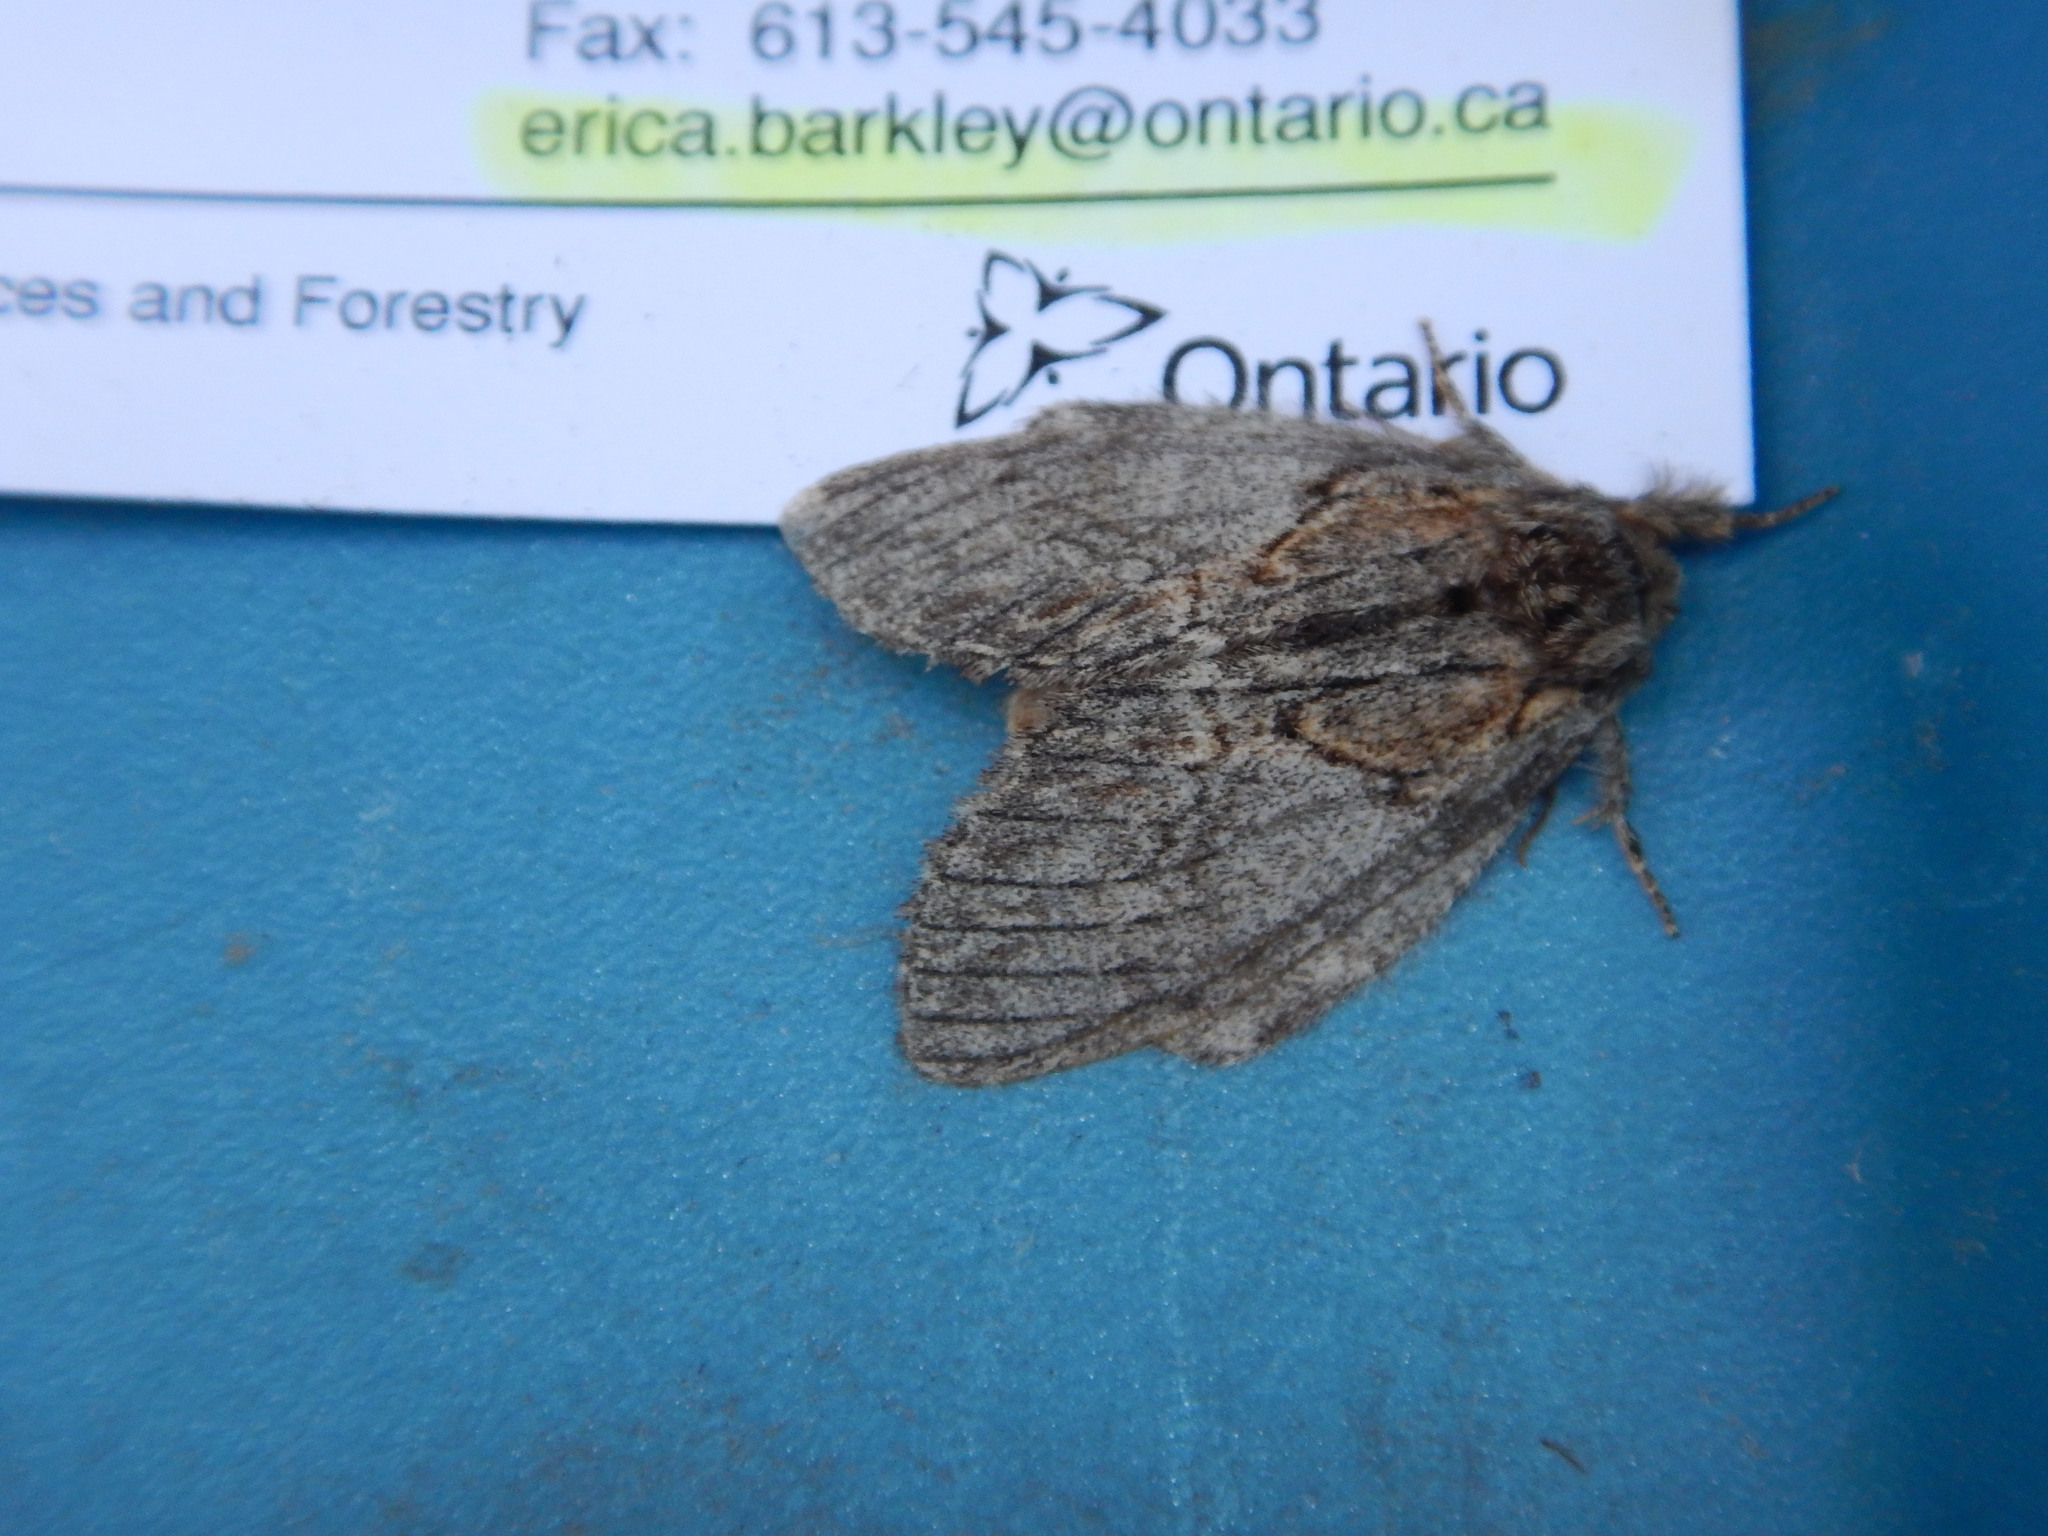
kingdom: Animalia
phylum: Arthropoda
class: Insecta
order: Lepidoptera
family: Notodontidae
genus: Peridea
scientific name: Peridea basitriens
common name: Oval-based prominent
